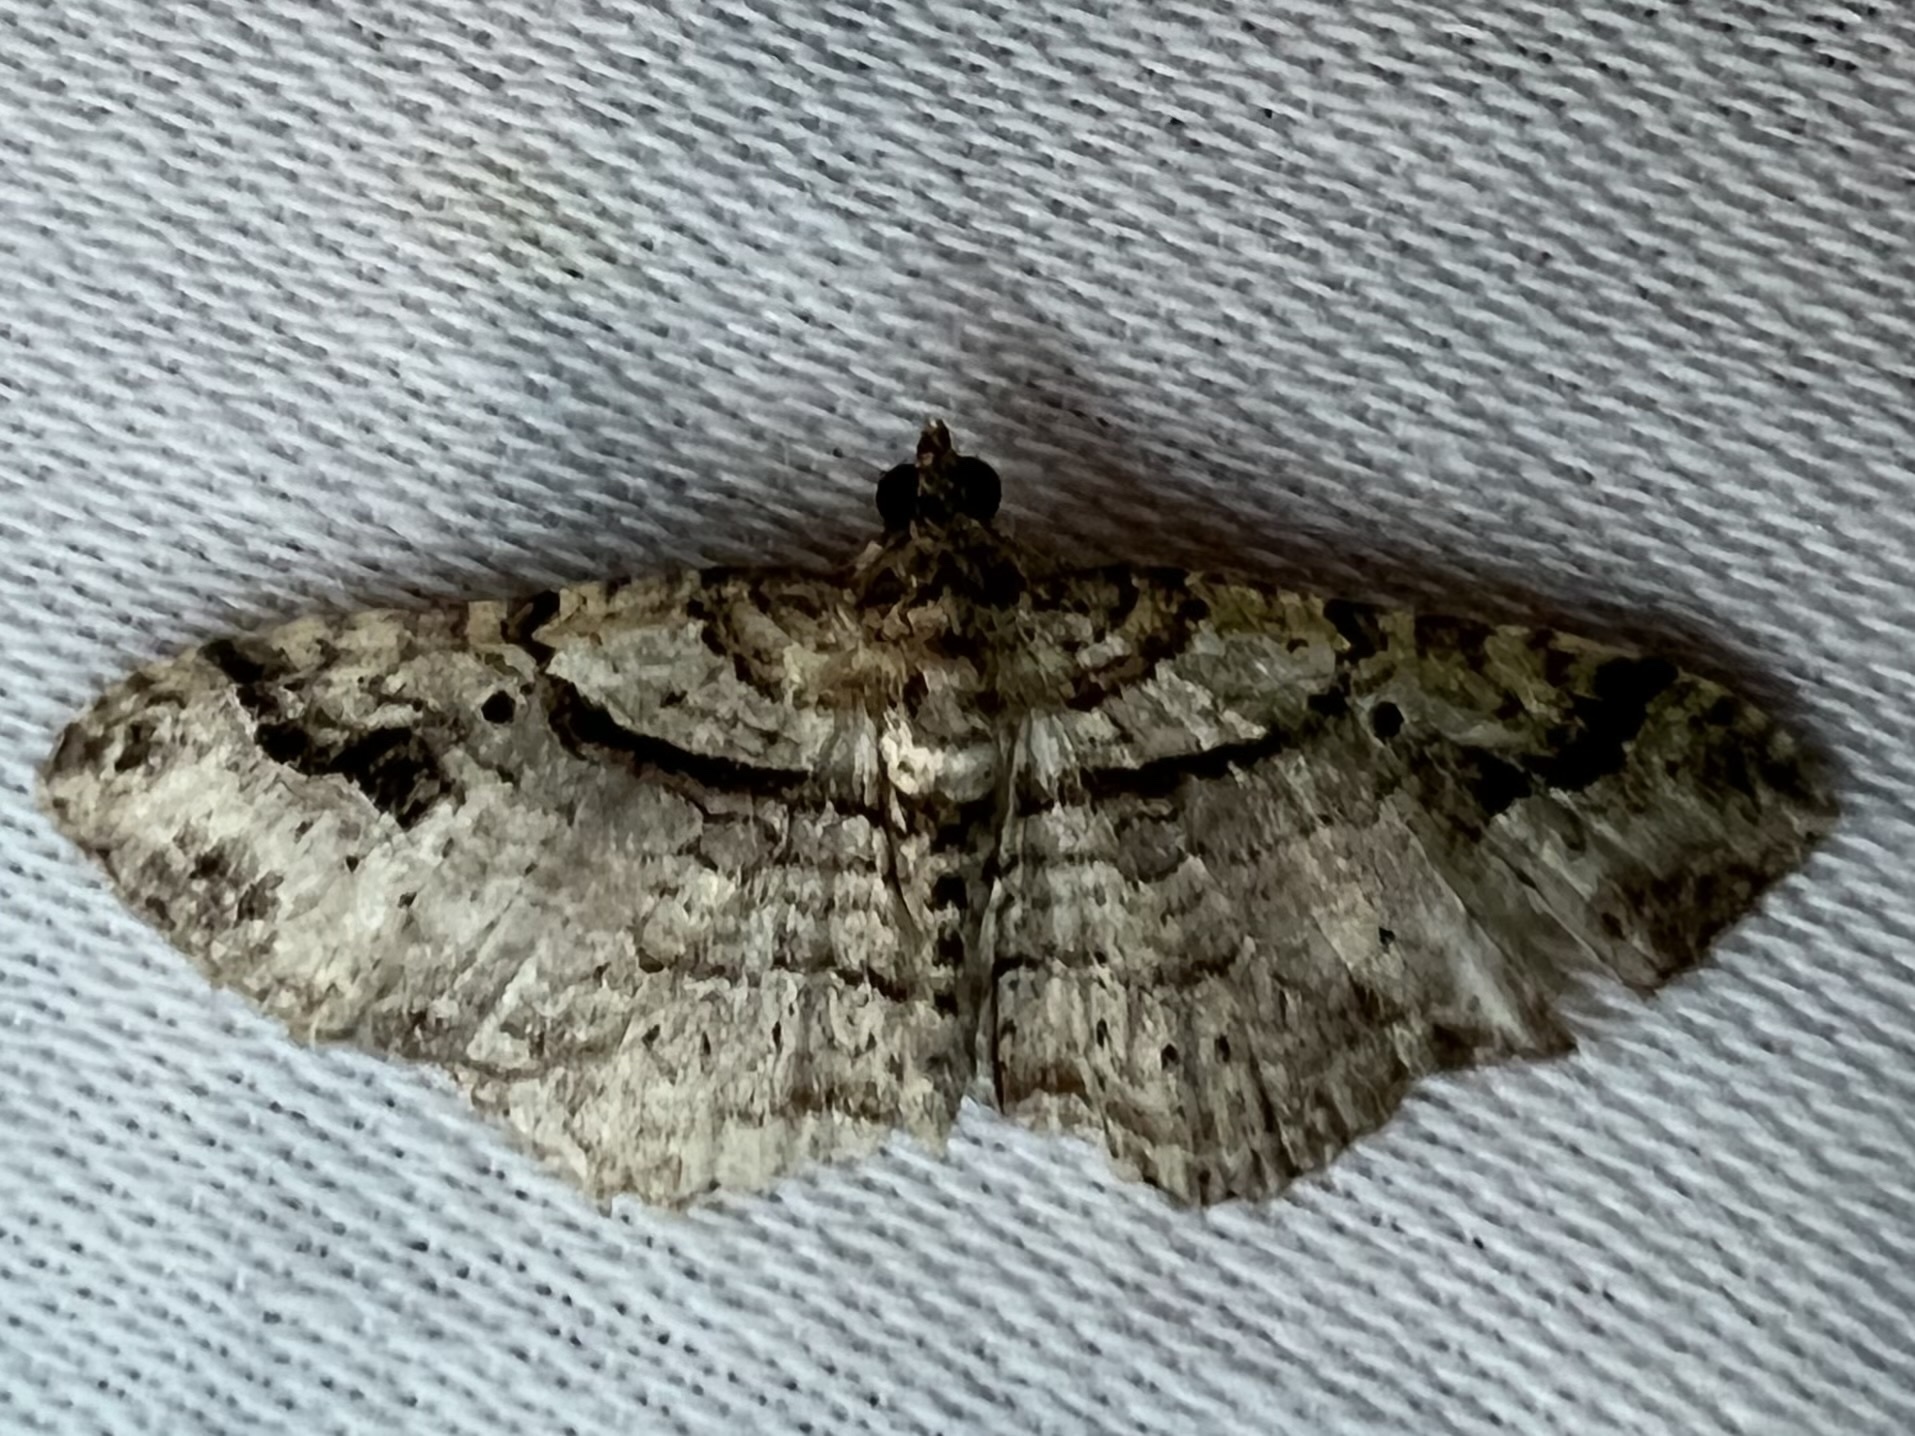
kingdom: Animalia
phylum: Arthropoda
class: Insecta
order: Lepidoptera
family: Geometridae
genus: Costaconvexa
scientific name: Costaconvexa centrostrigaria
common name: Bent-line carpet
